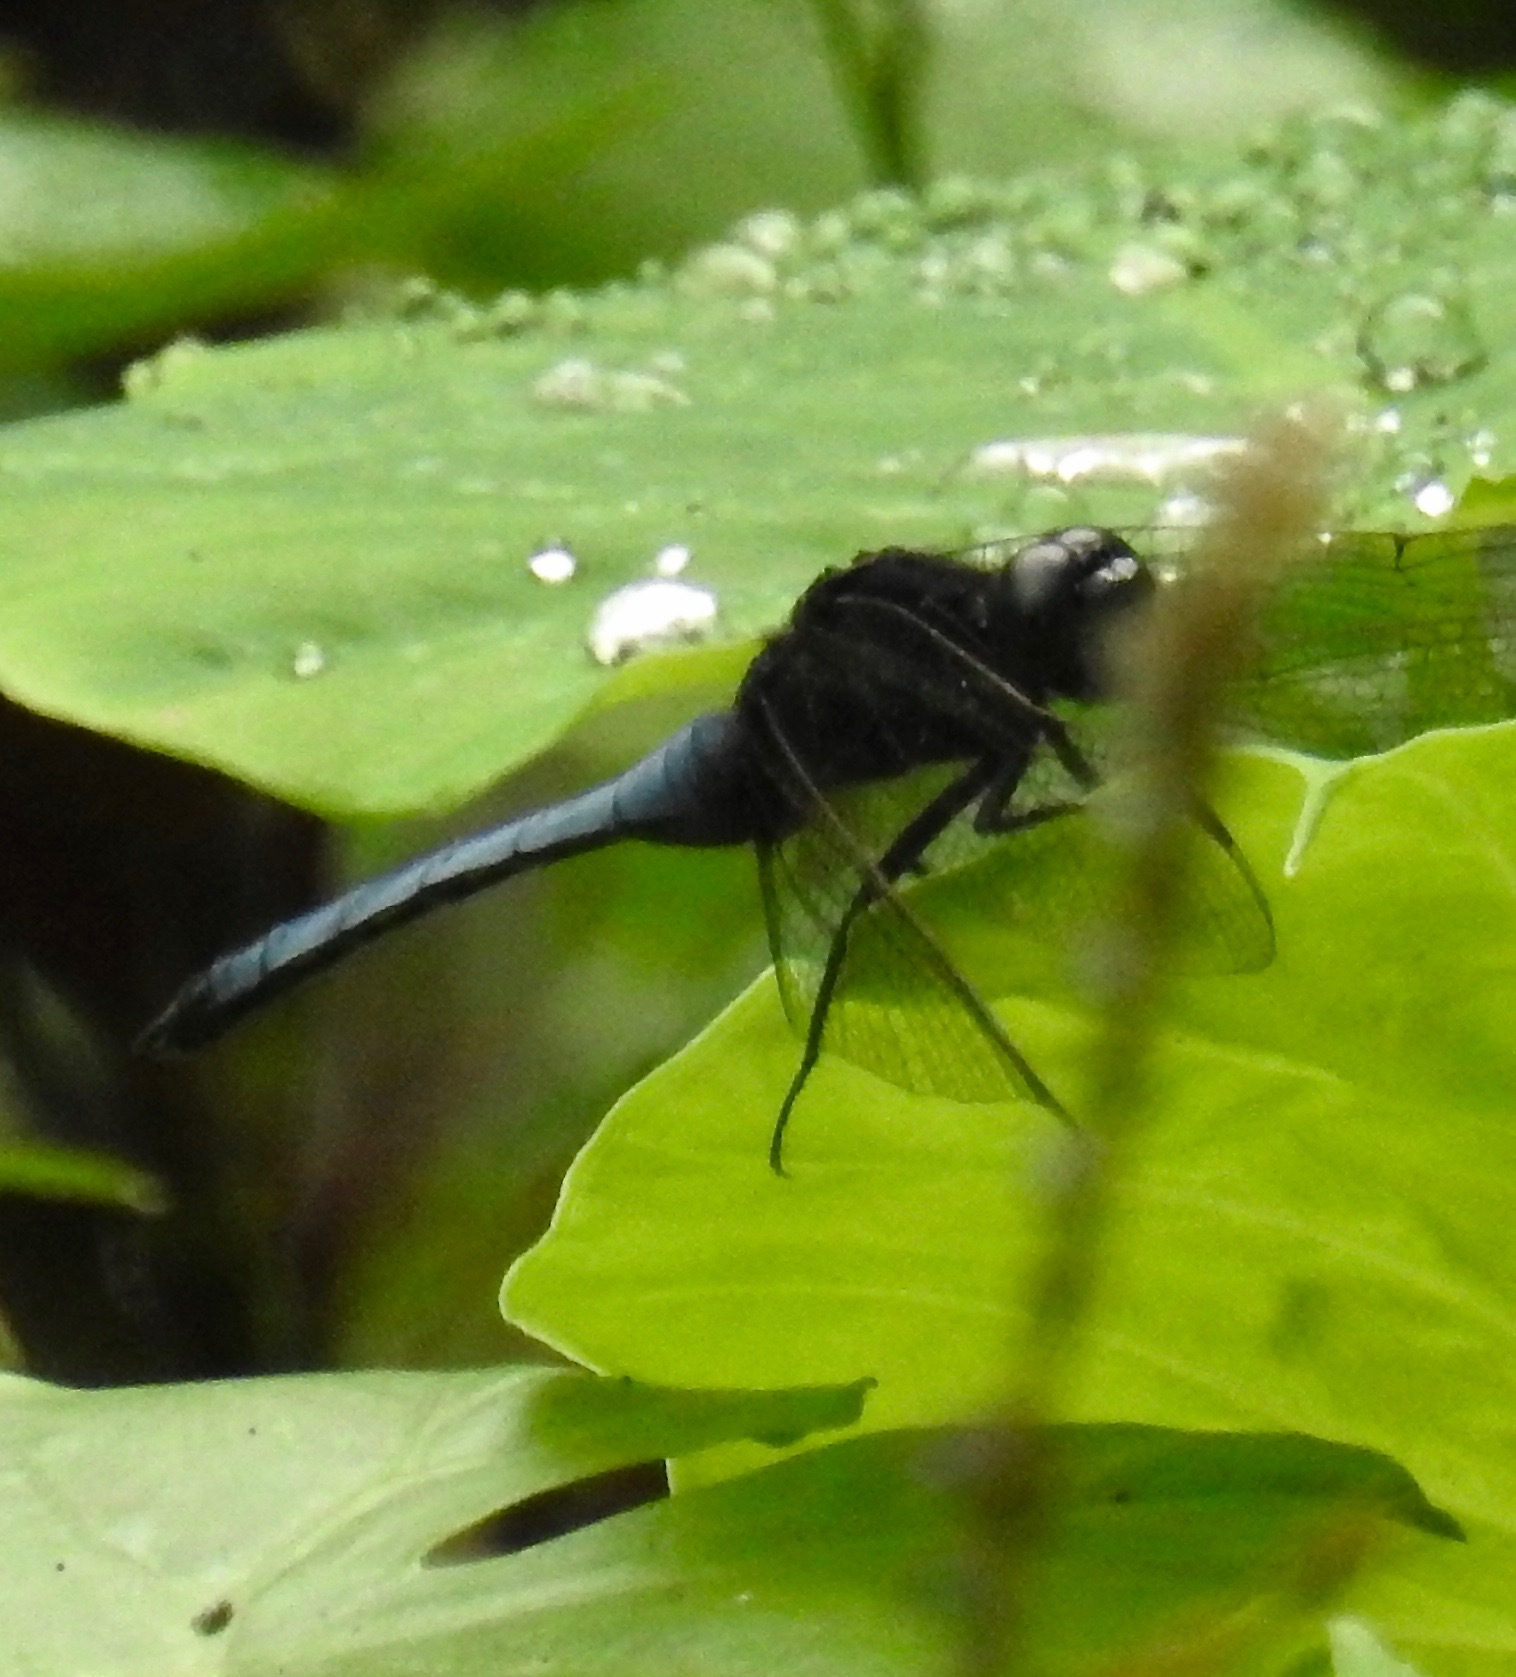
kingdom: Animalia
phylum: Arthropoda
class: Insecta
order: Odonata
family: Libellulidae
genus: Orthetrum
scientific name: Orthetrum glaucum
